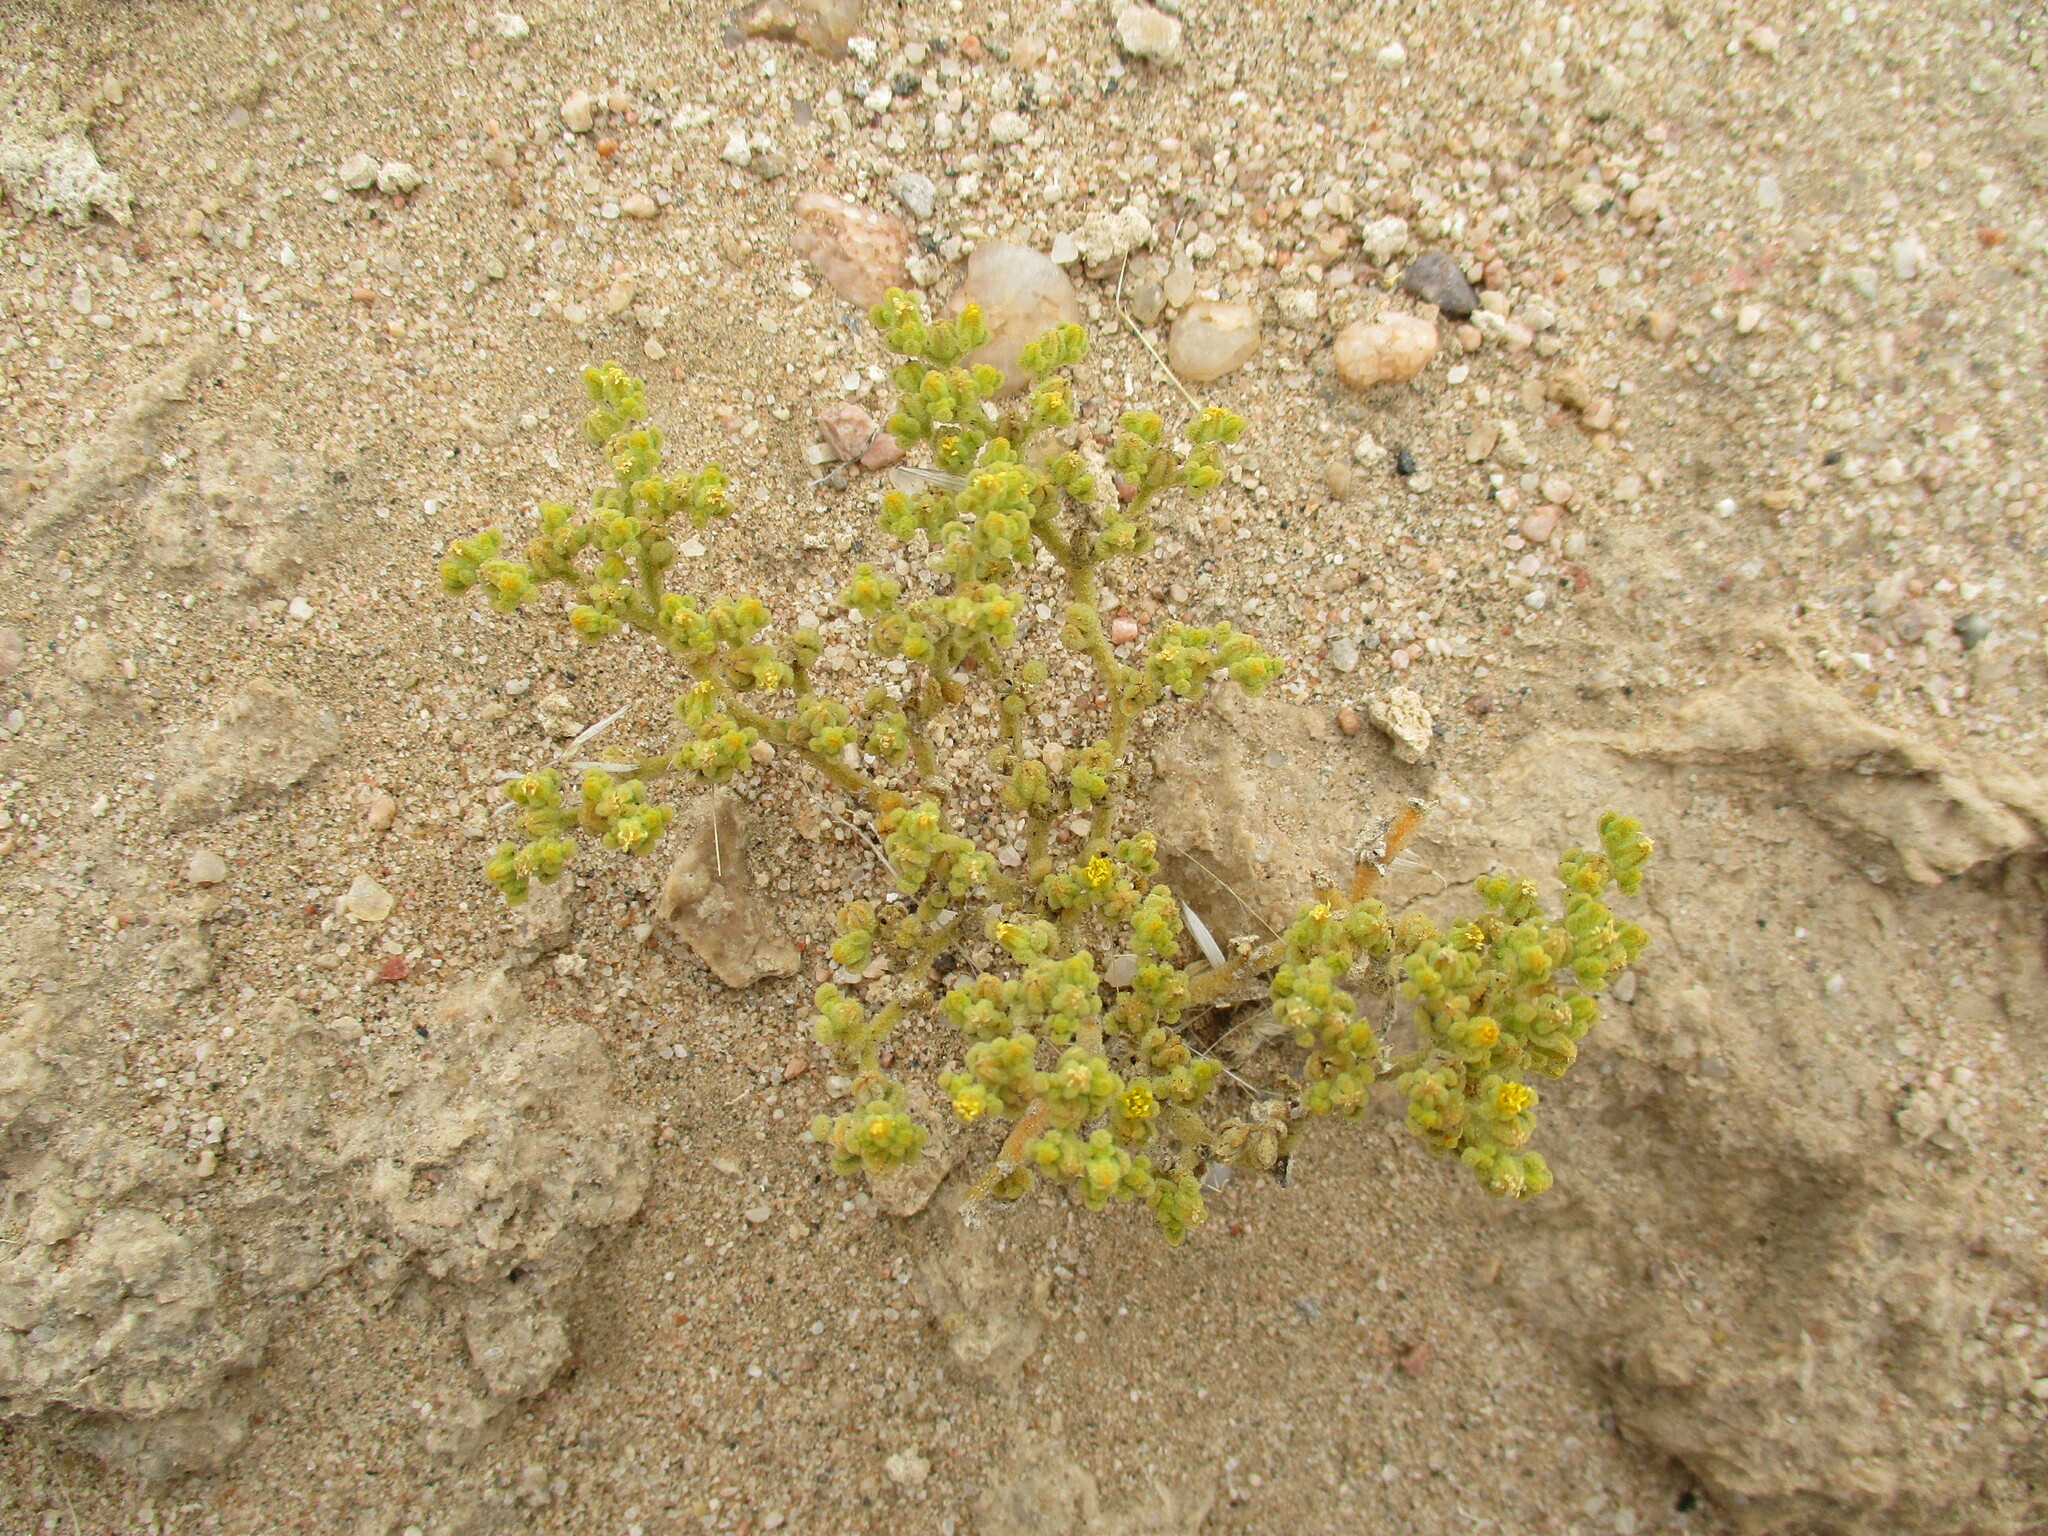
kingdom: Plantae
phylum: Tracheophyta
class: Magnoliopsida
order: Zygophyllales
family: Zygophyllaceae
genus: Tetraena
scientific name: Tetraena simplex
